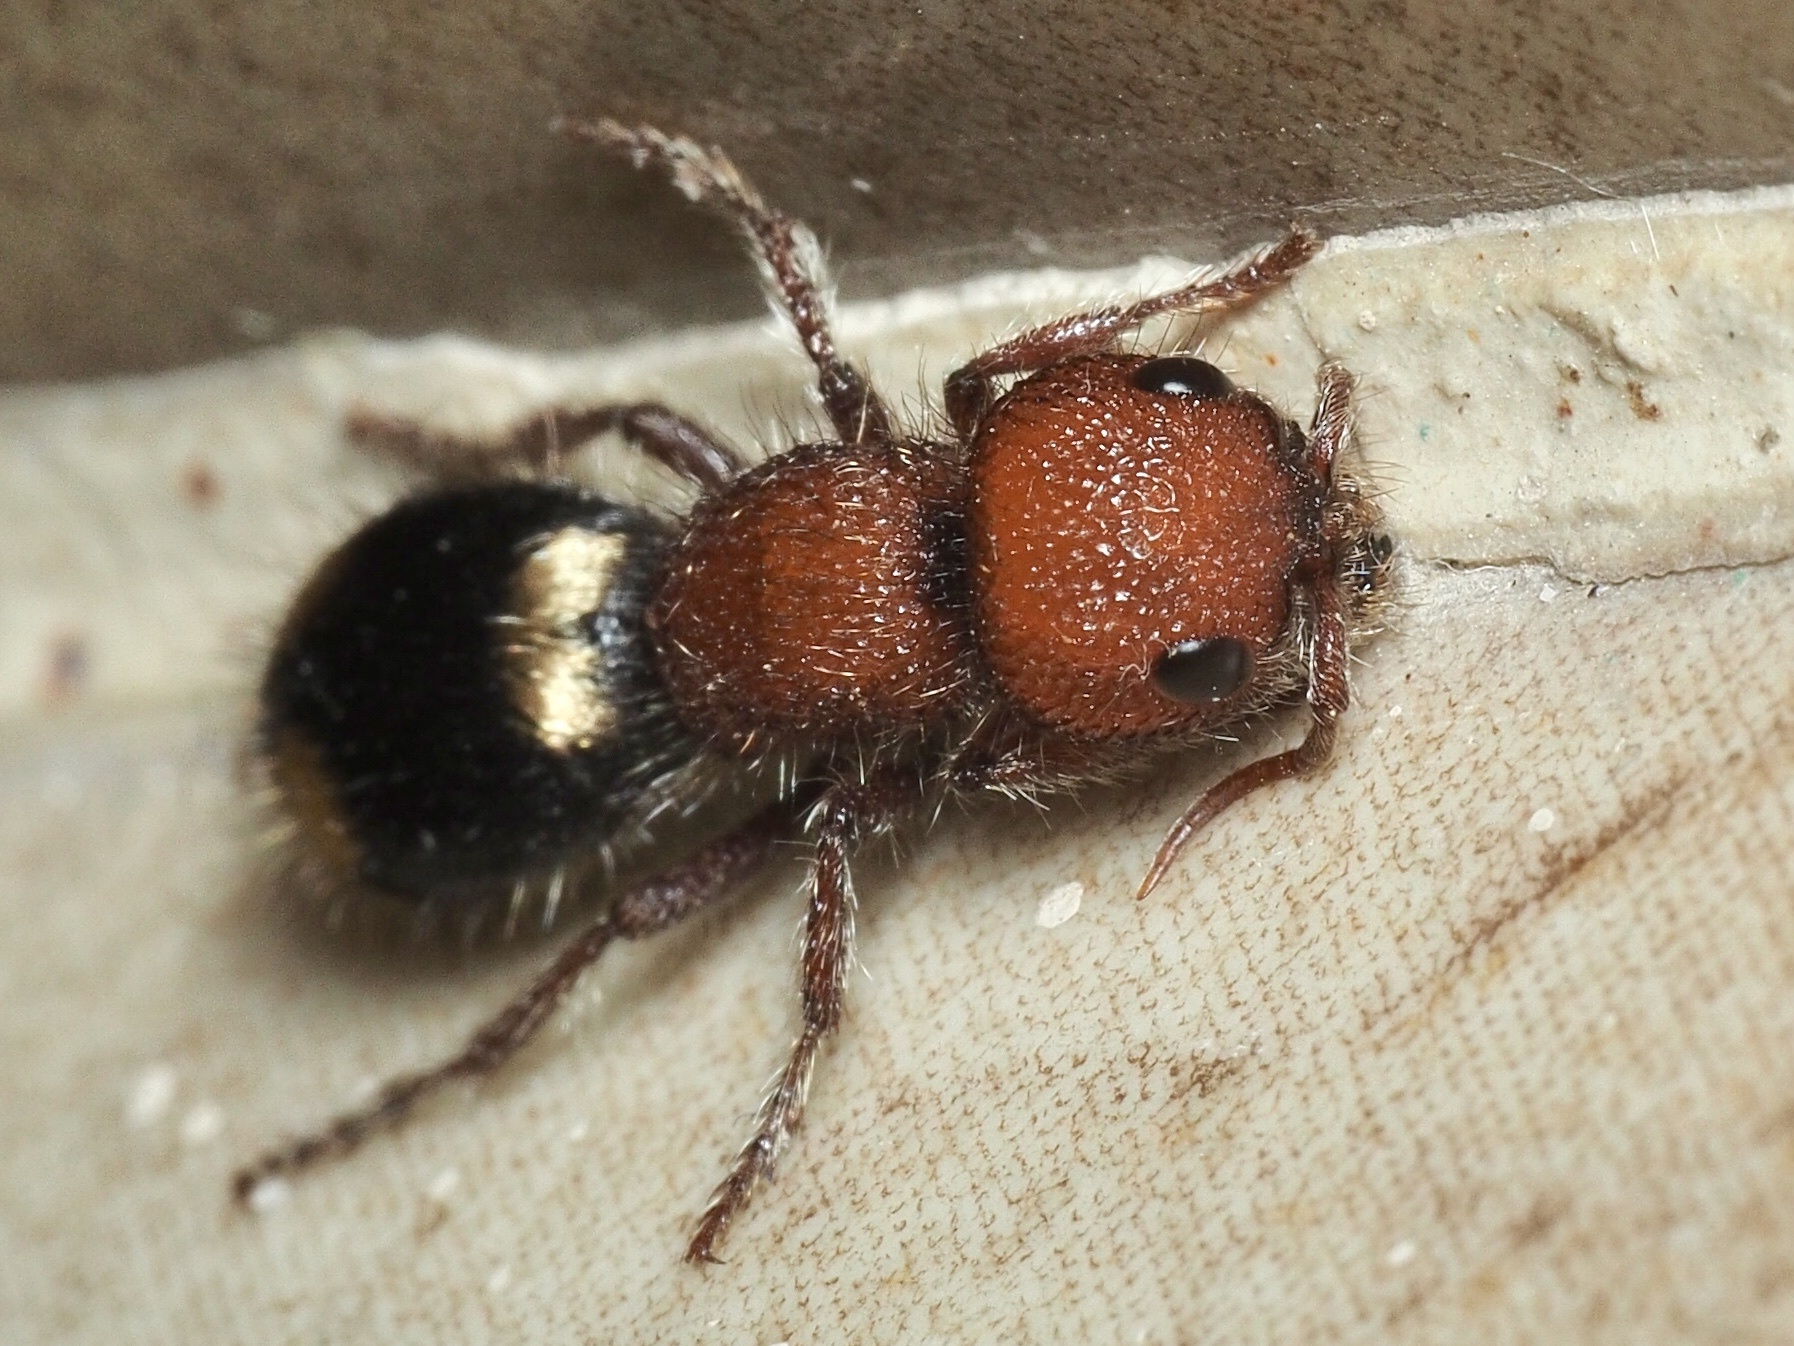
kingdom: Animalia
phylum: Arthropoda
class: Insecta
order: Hymenoptera
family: Mutillidae
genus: Mutilla
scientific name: Mutilla quinquemaculata
